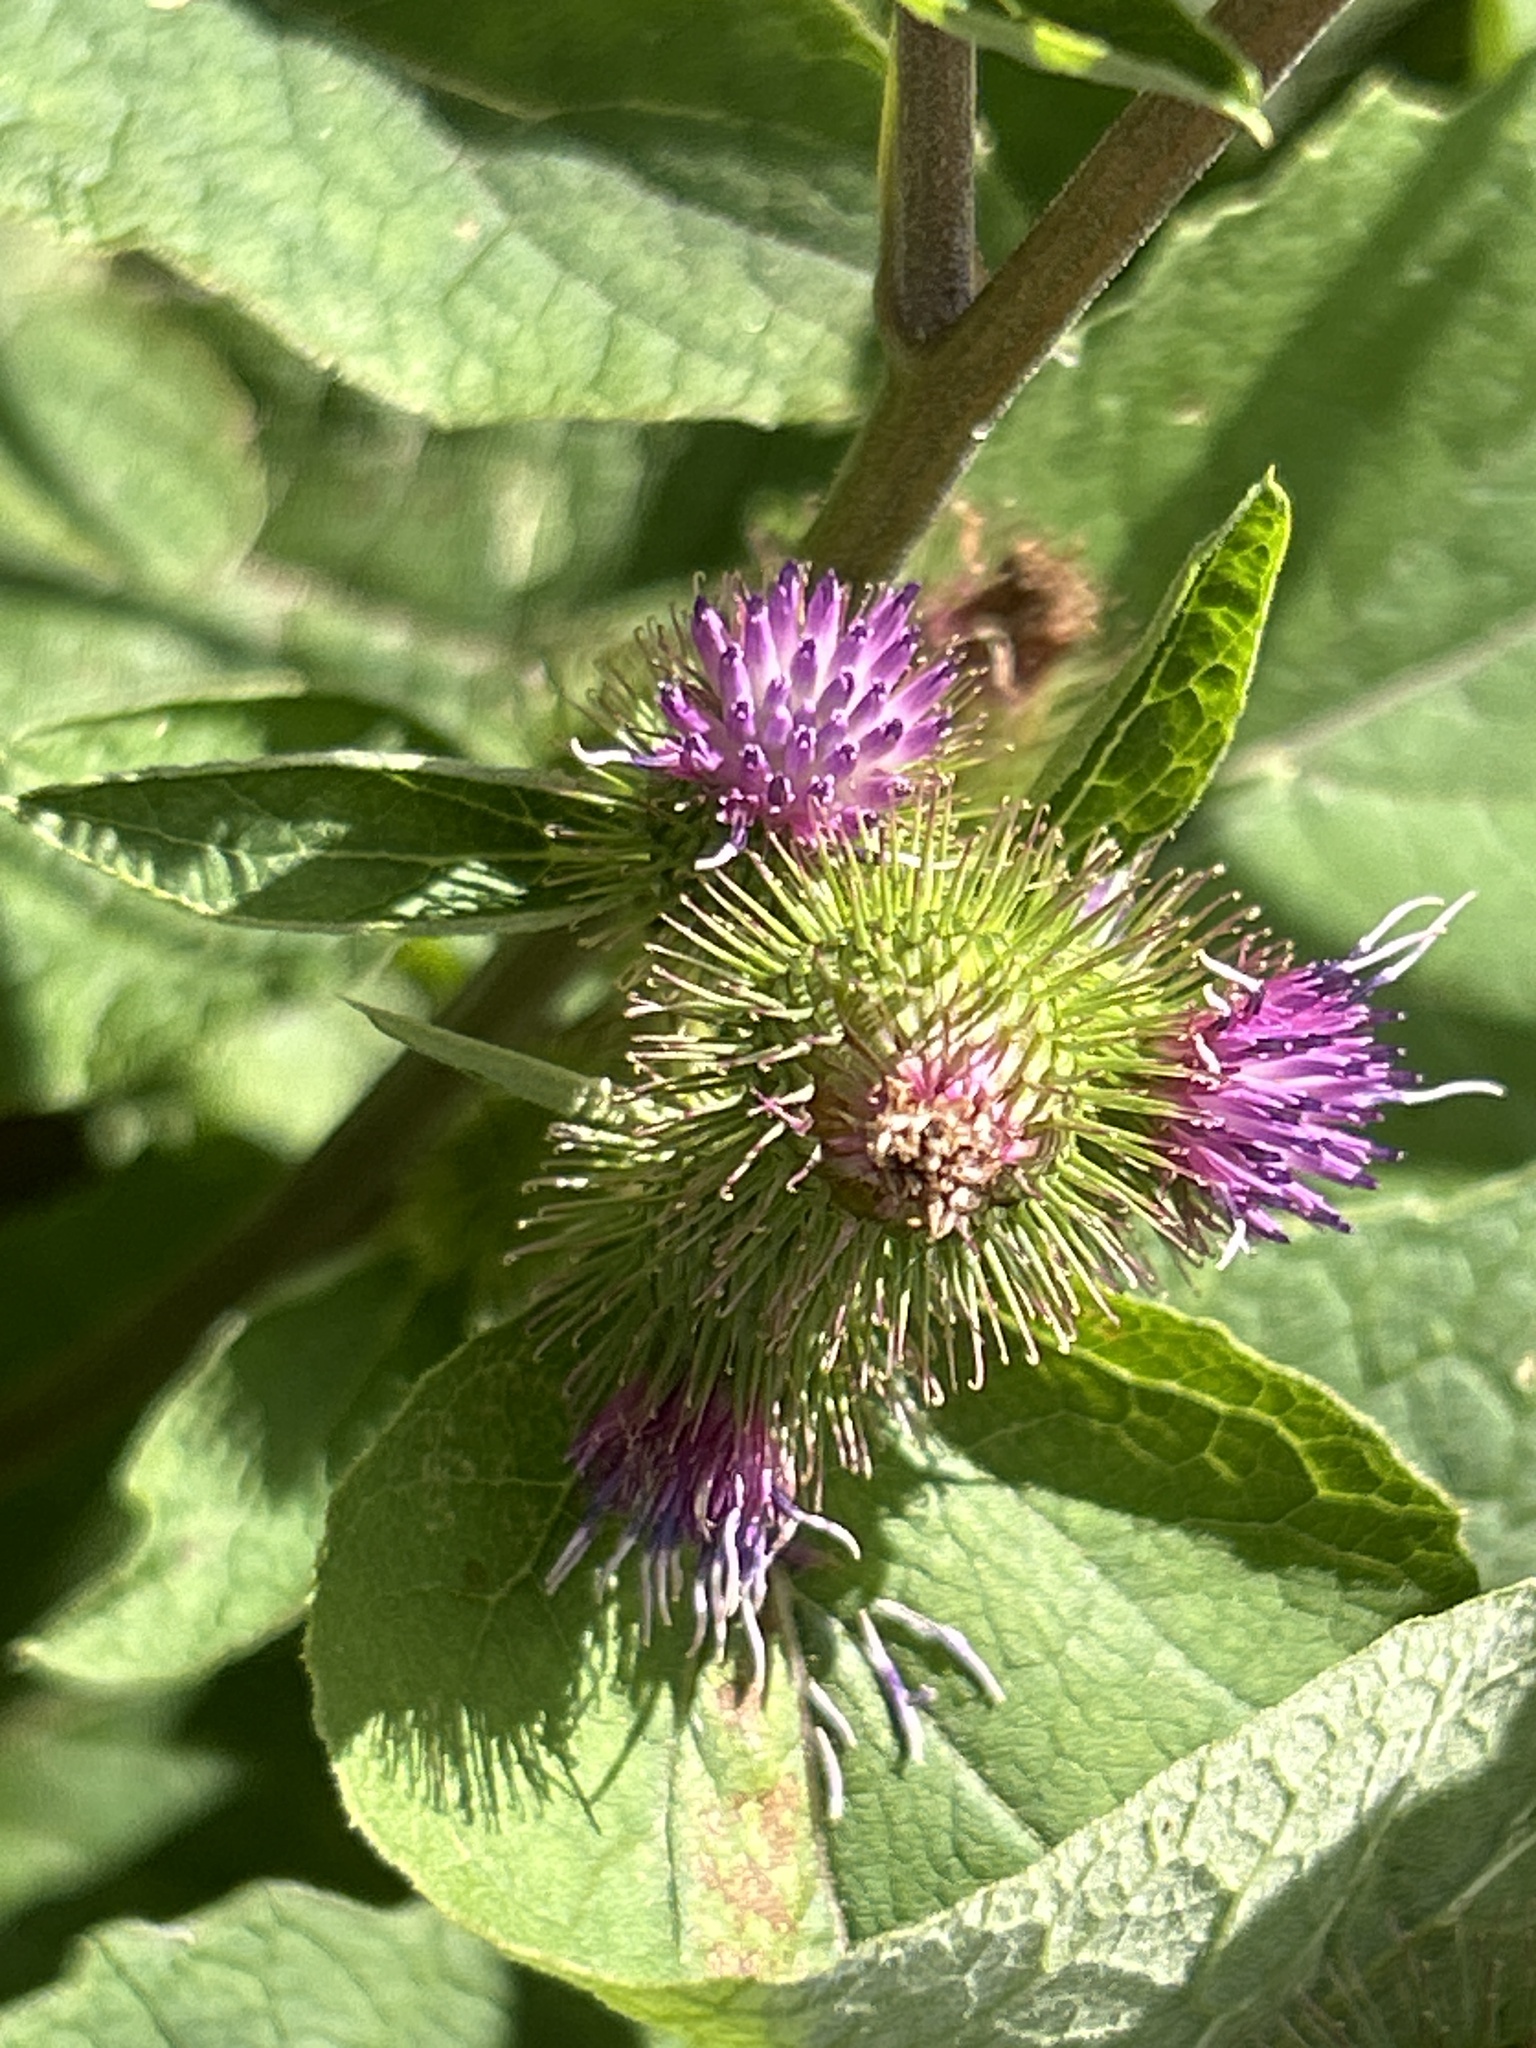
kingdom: Plantae
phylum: Tracheophyta
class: Magnoliopsida
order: Asterales
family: Asteraceae
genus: Arctium
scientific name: Arctium minus
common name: Lesser burdock
